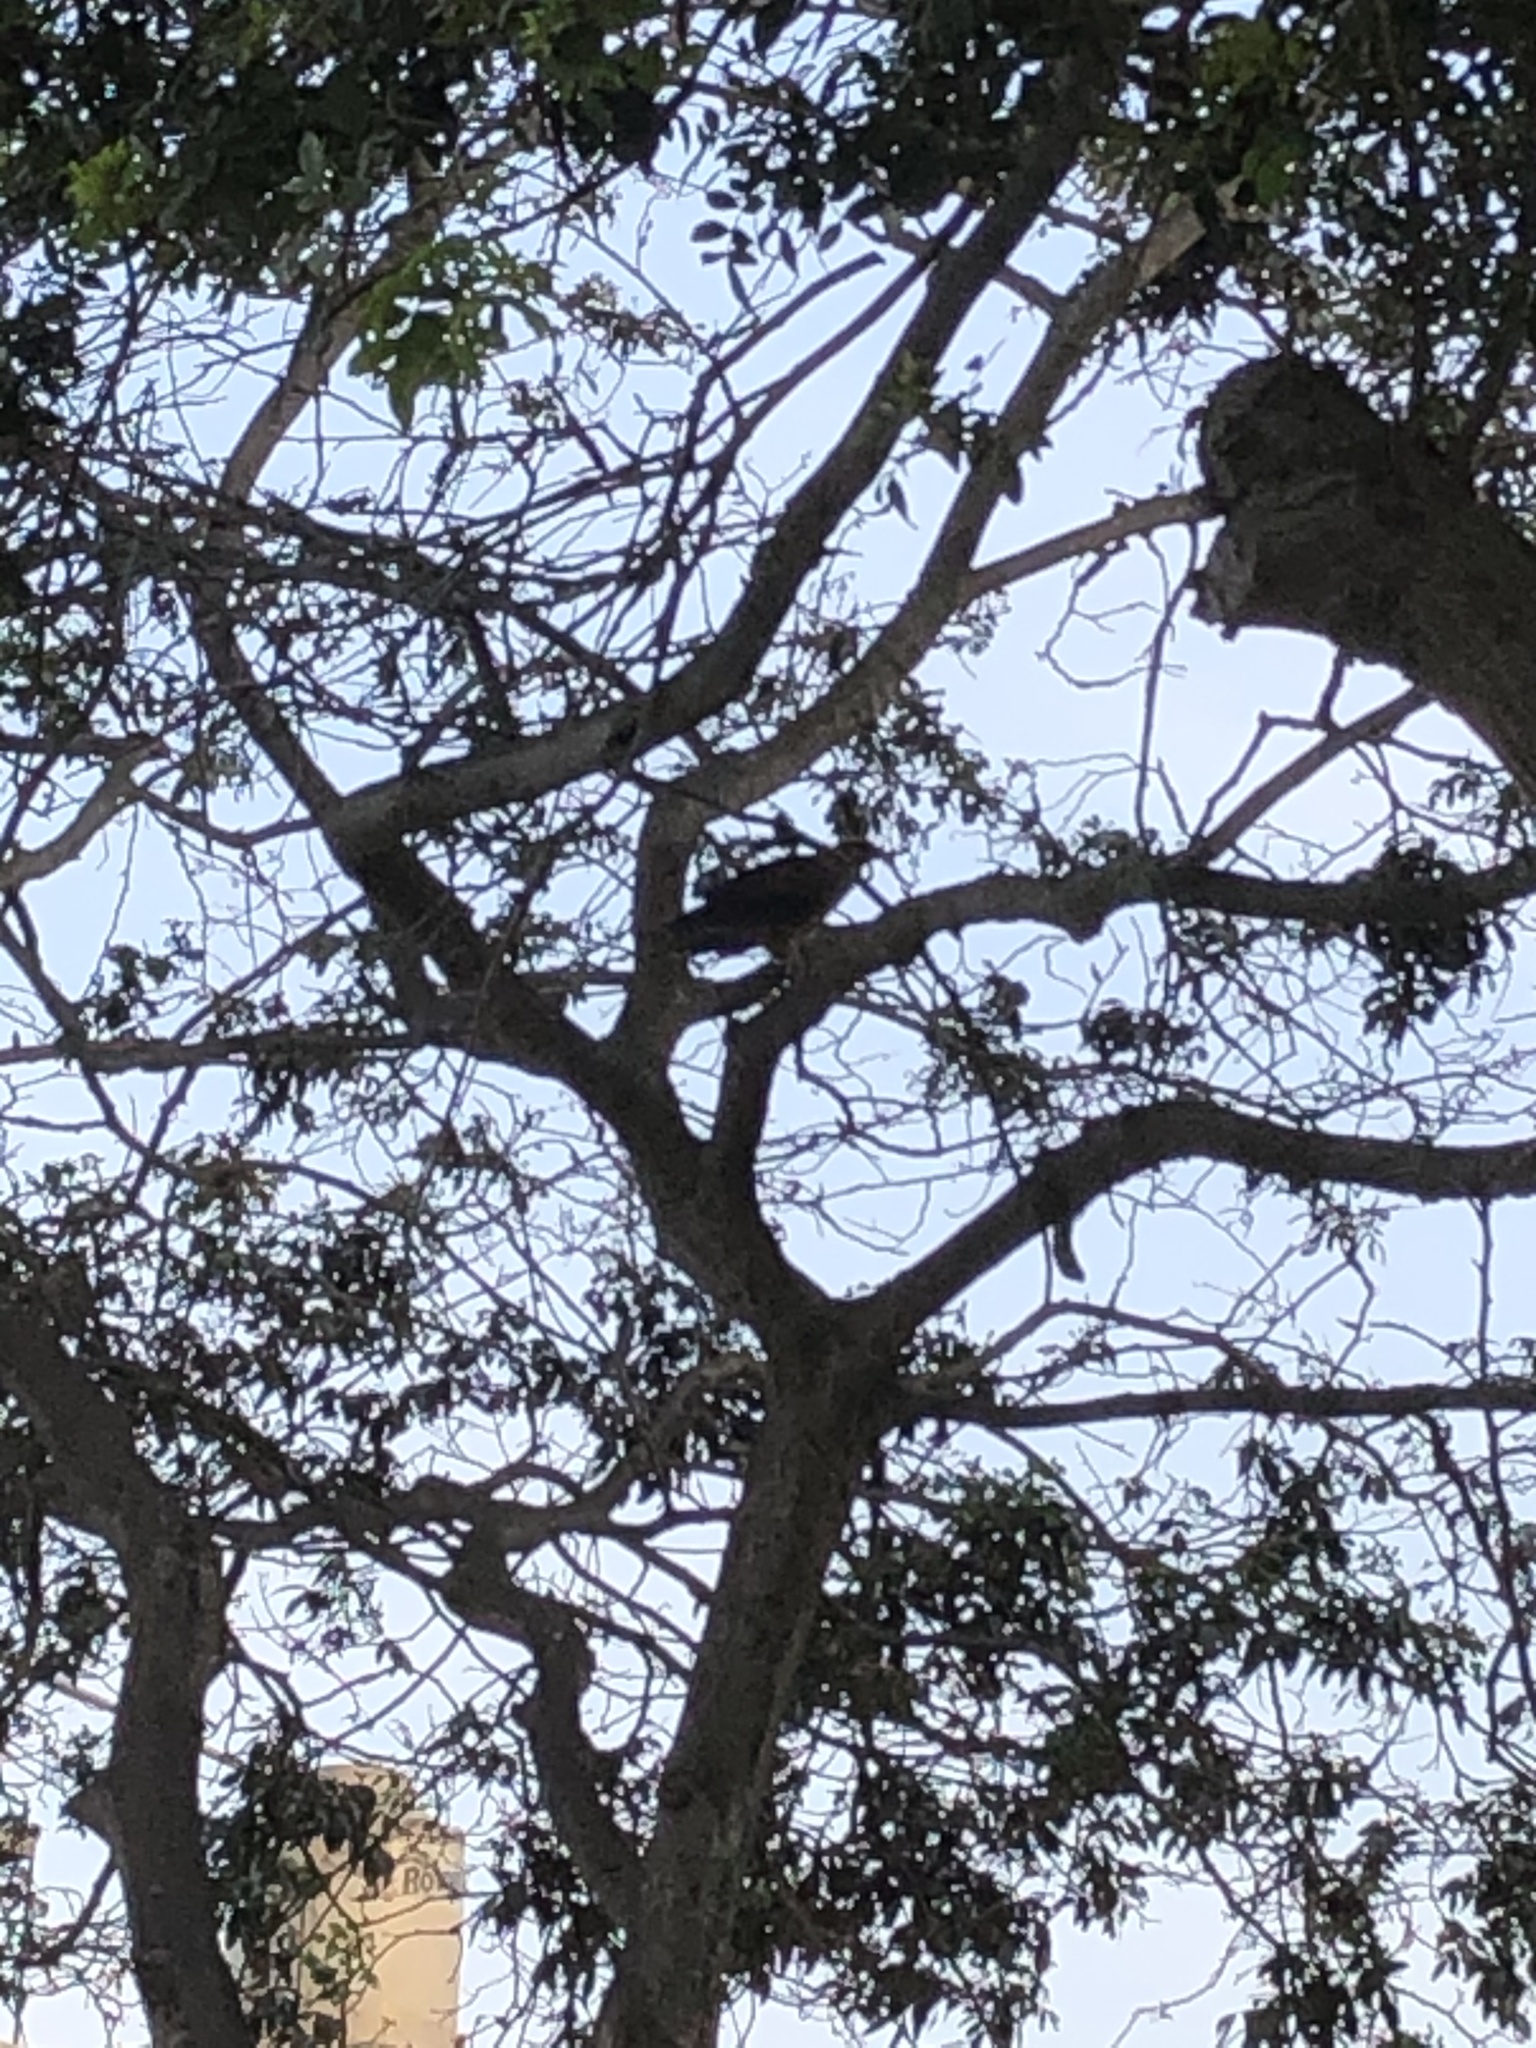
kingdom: Animalia
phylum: Chordata
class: Aves
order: Accipitriformes
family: Accipitridae
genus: Parabuteo
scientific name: Parabuteo unicinctus
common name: Harris's hawk
